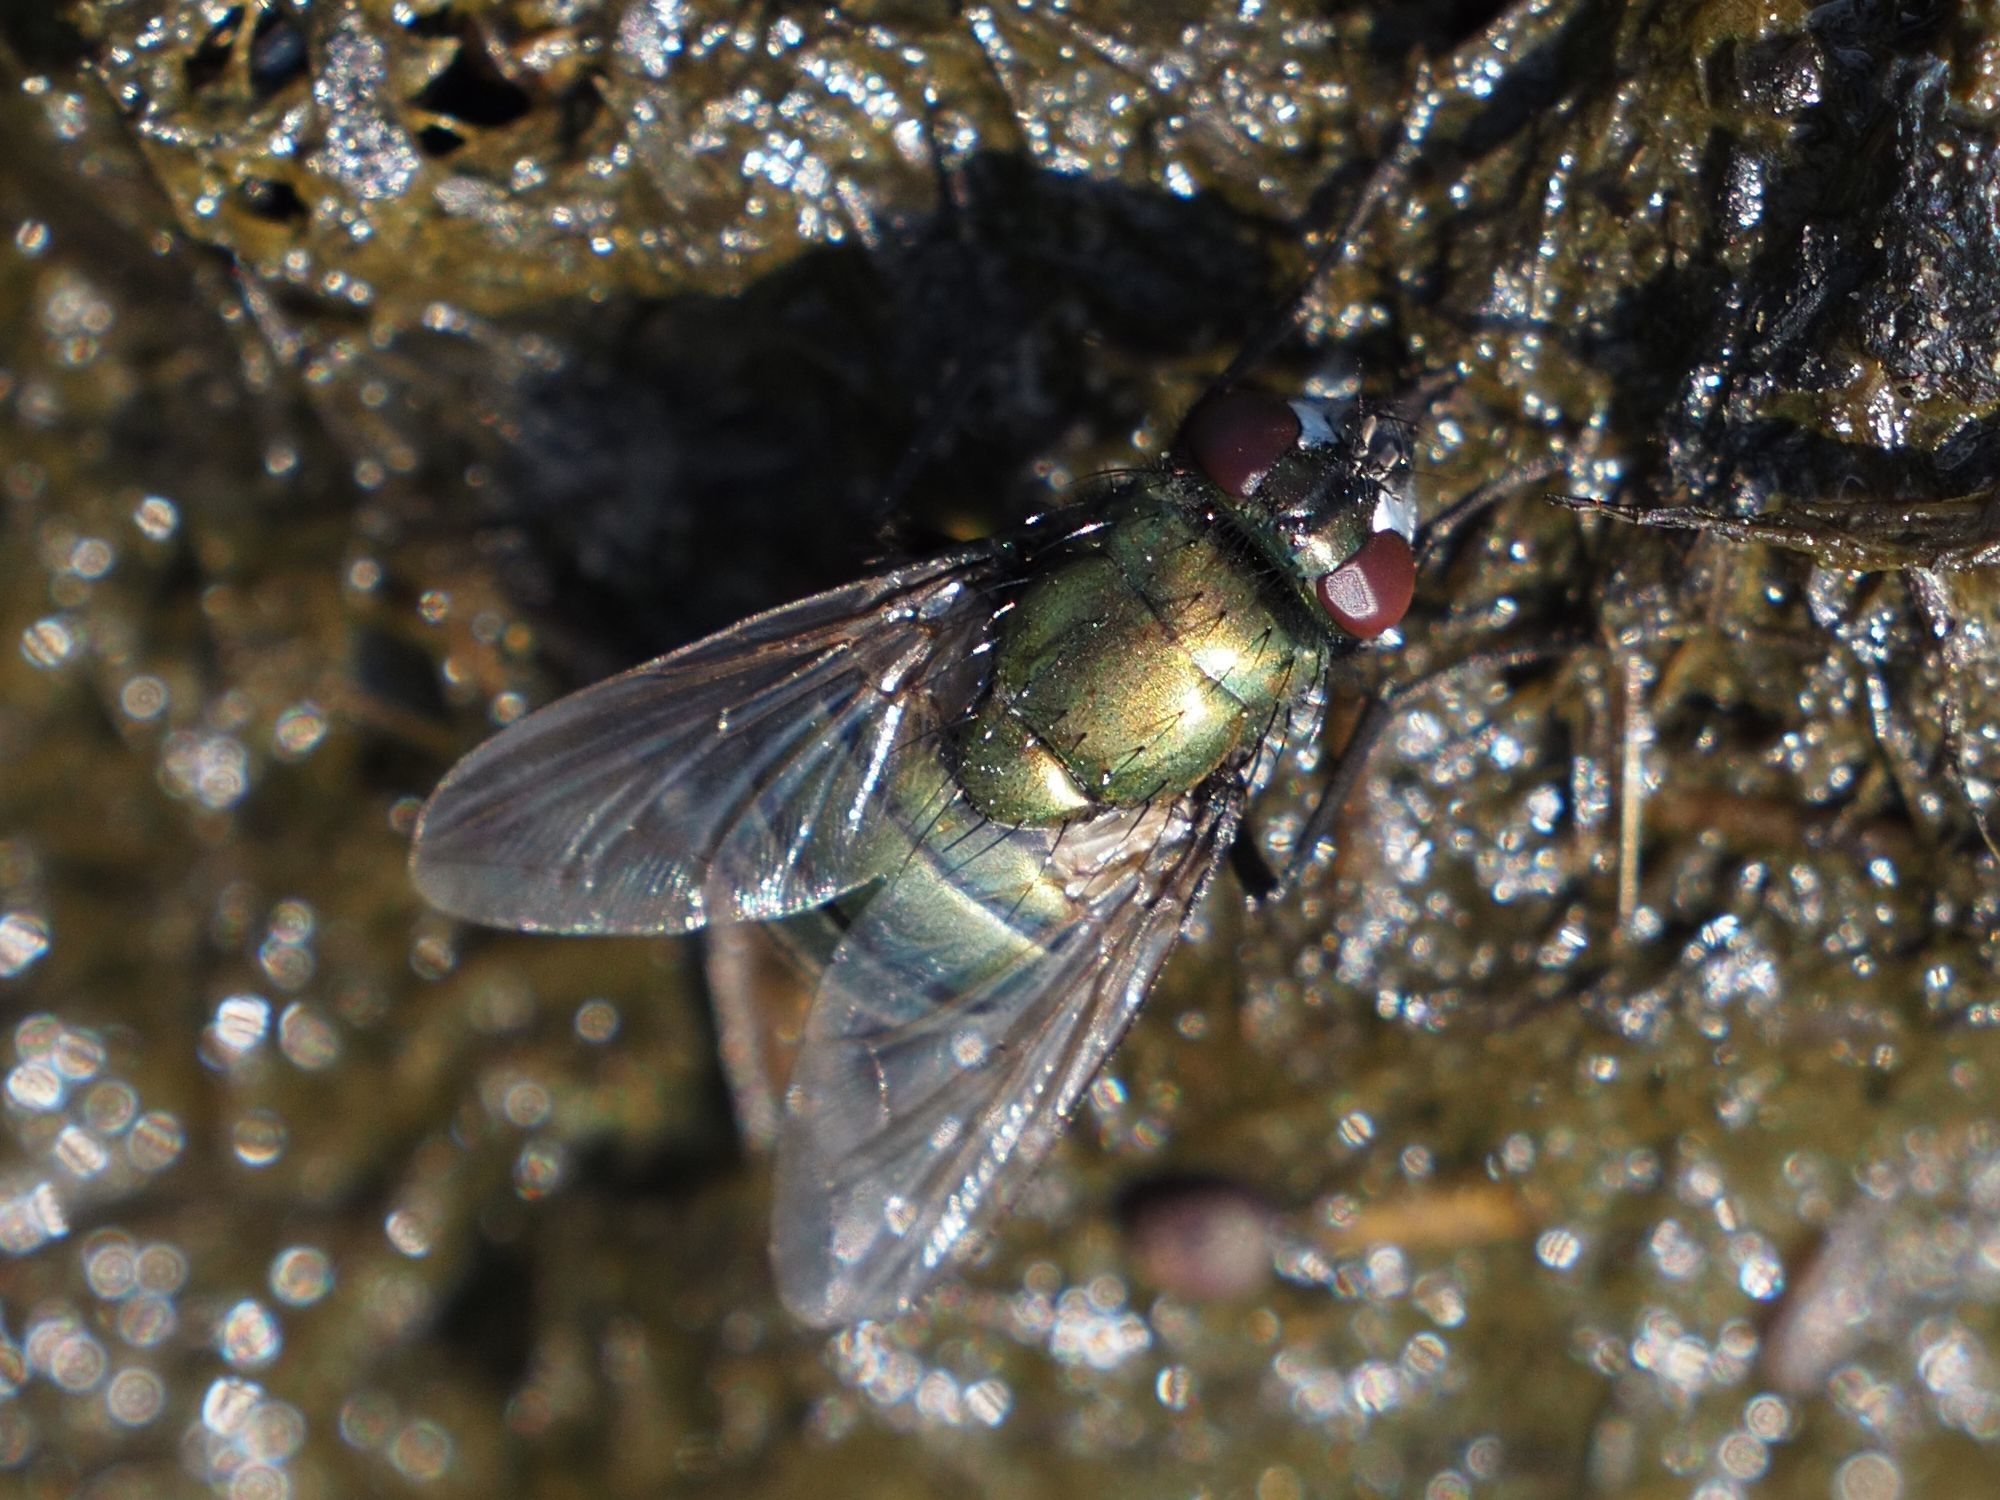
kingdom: Animalia
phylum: Arthropoda
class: Insecta
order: Diptera
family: Muscidae
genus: Neomyia
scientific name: Neomyia cornicina
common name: House fly
